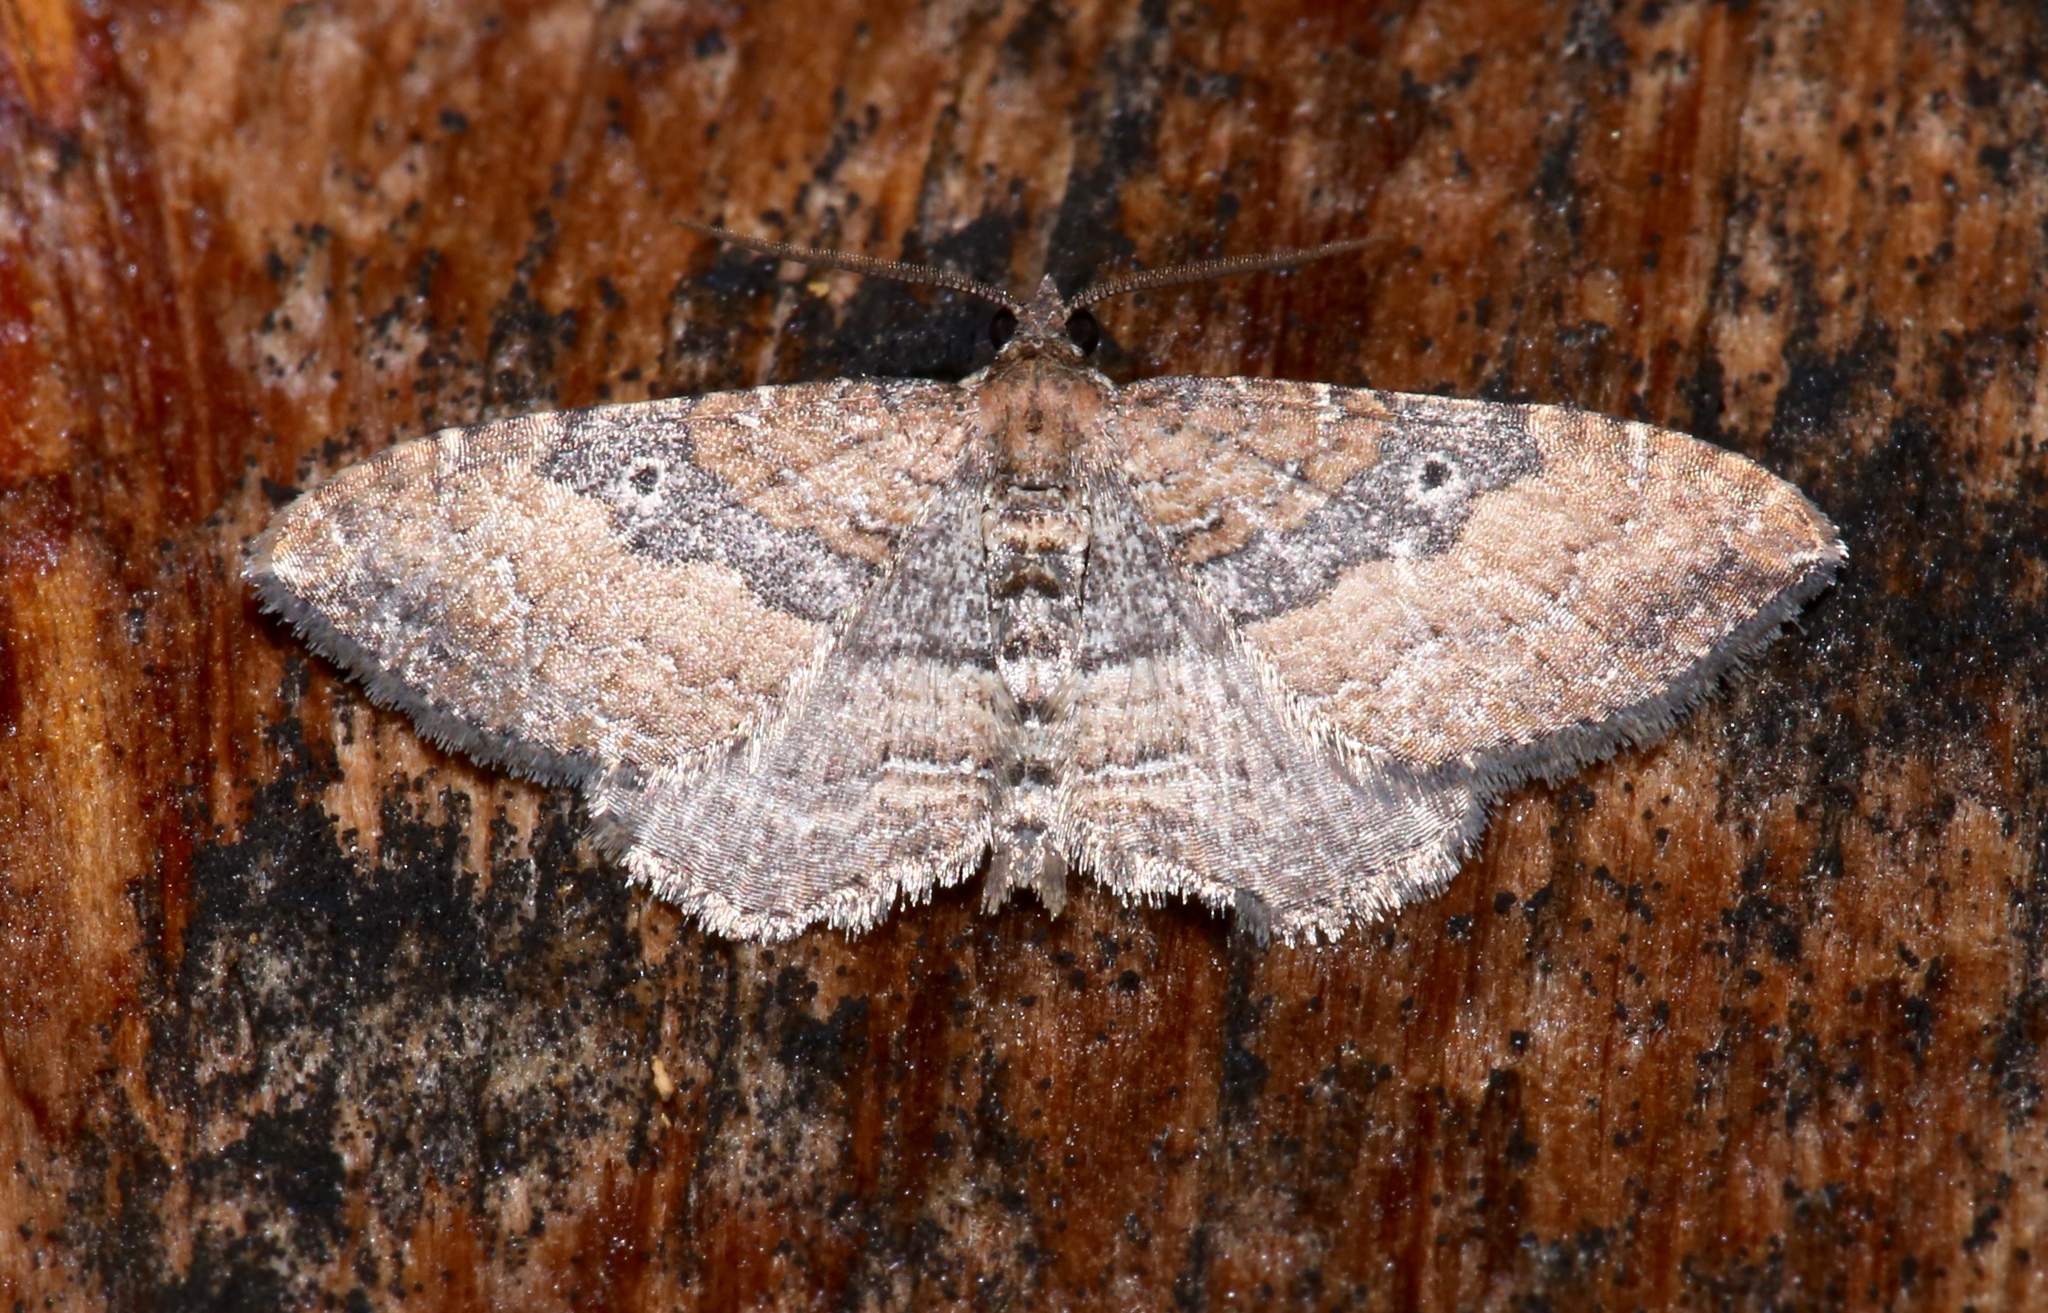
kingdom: Animalia
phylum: Arthropoda
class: Insecta
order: Lepidoptera
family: Geometridae
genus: Orthonama
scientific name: Orthonama obstipata
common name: The gem
